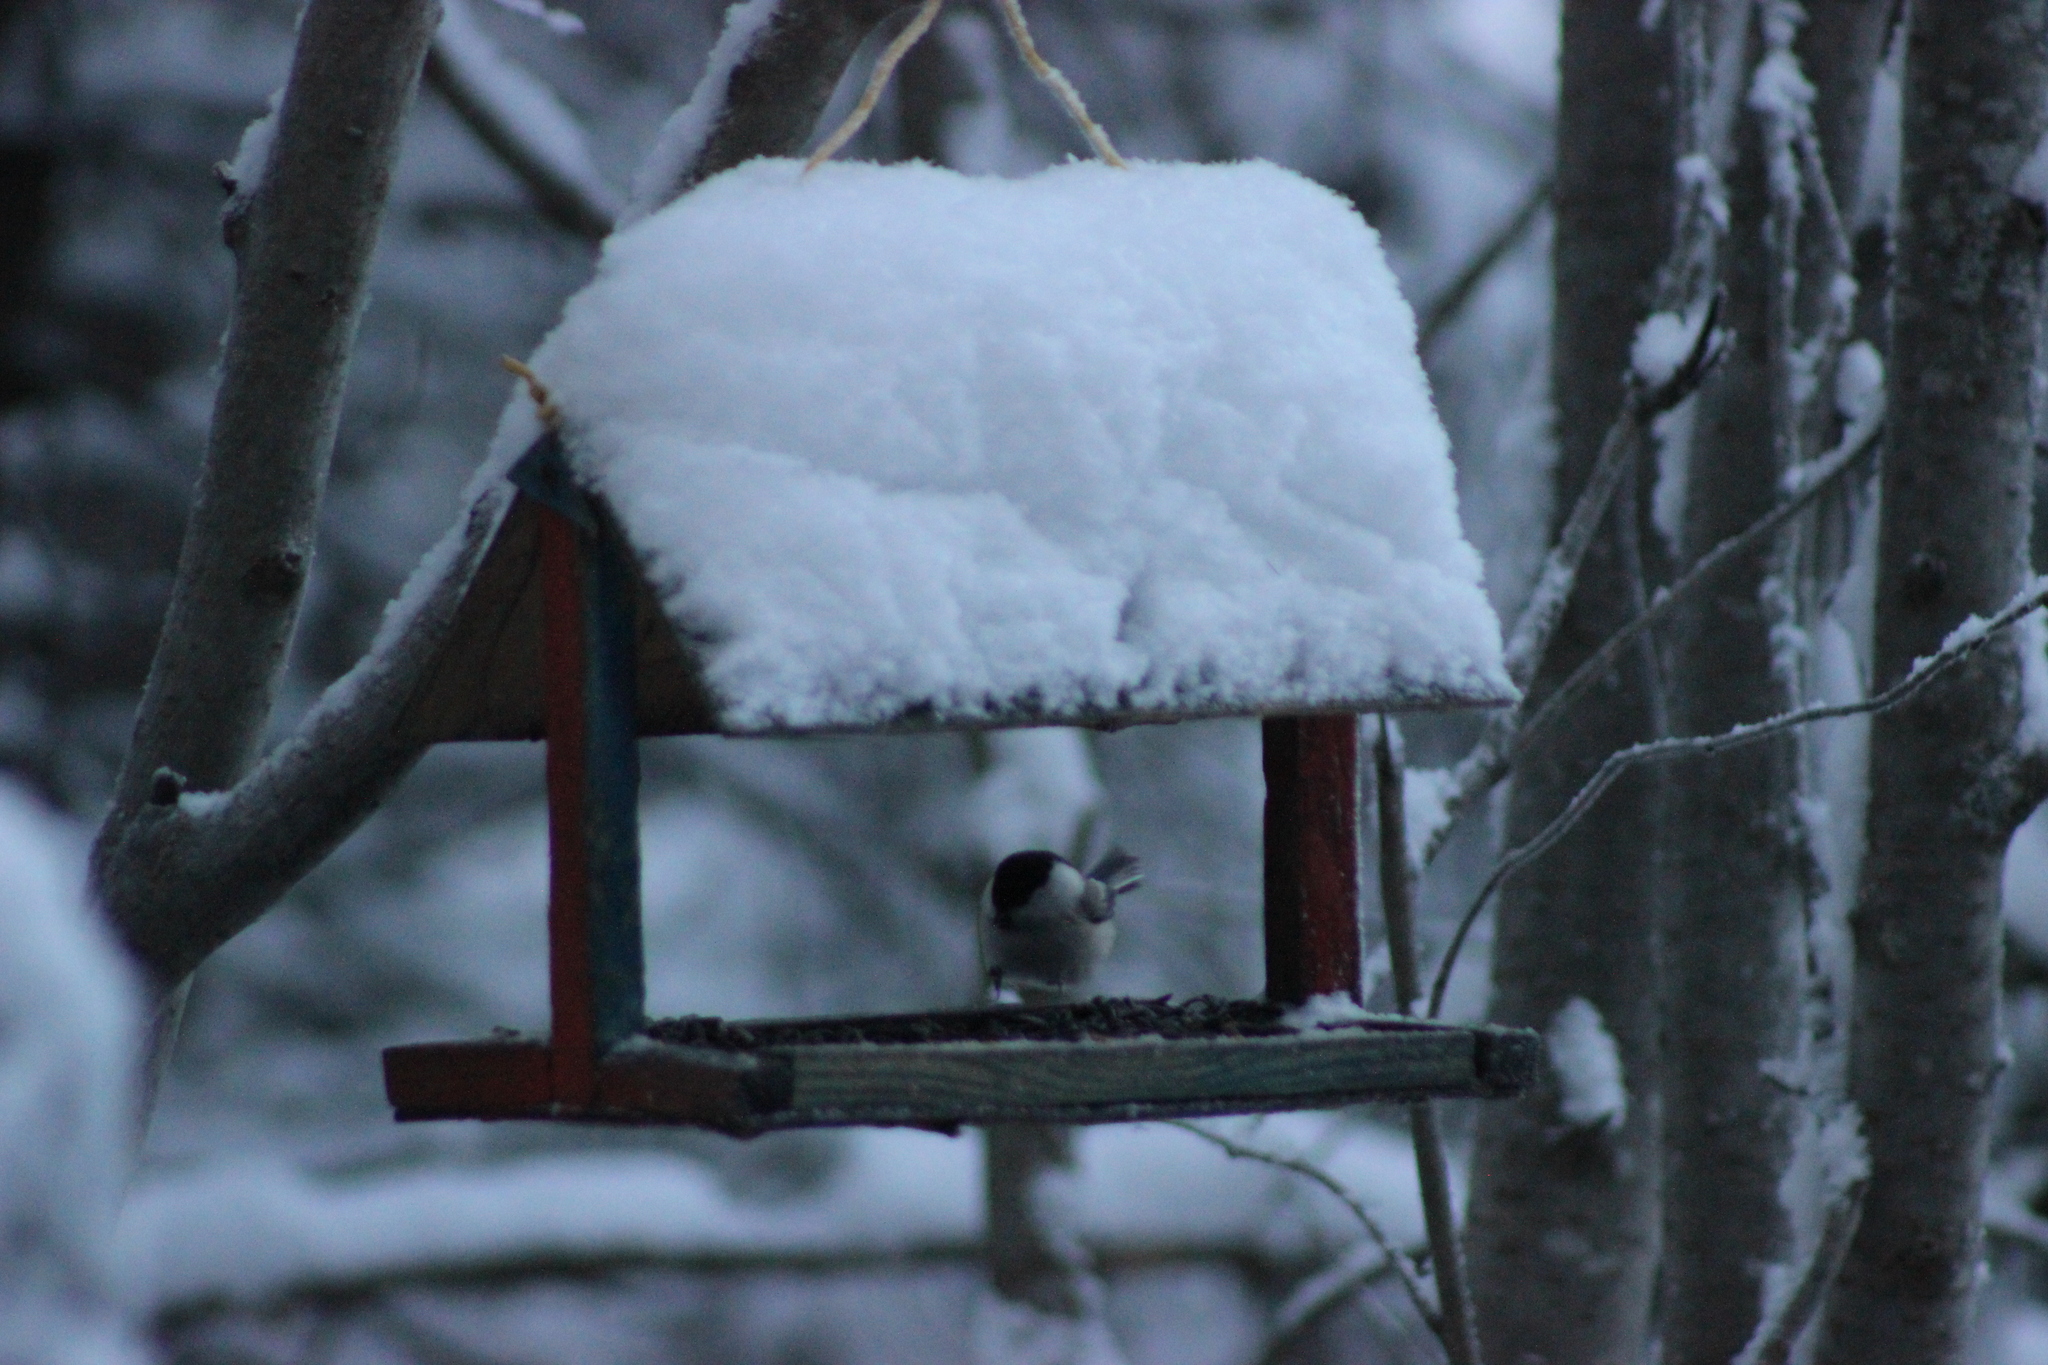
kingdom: Animalia
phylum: Chordata
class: Aves
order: Passeriformes
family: Paridae
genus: Poecile
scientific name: Poecile montanus
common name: Willow tit
